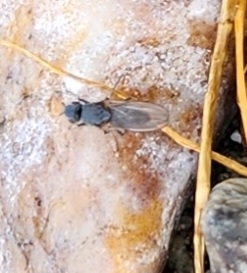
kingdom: Animalia
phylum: Arthropoda
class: Insecta
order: Diptera
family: Ephydridae
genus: Cirrula
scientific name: Cirrula hians
